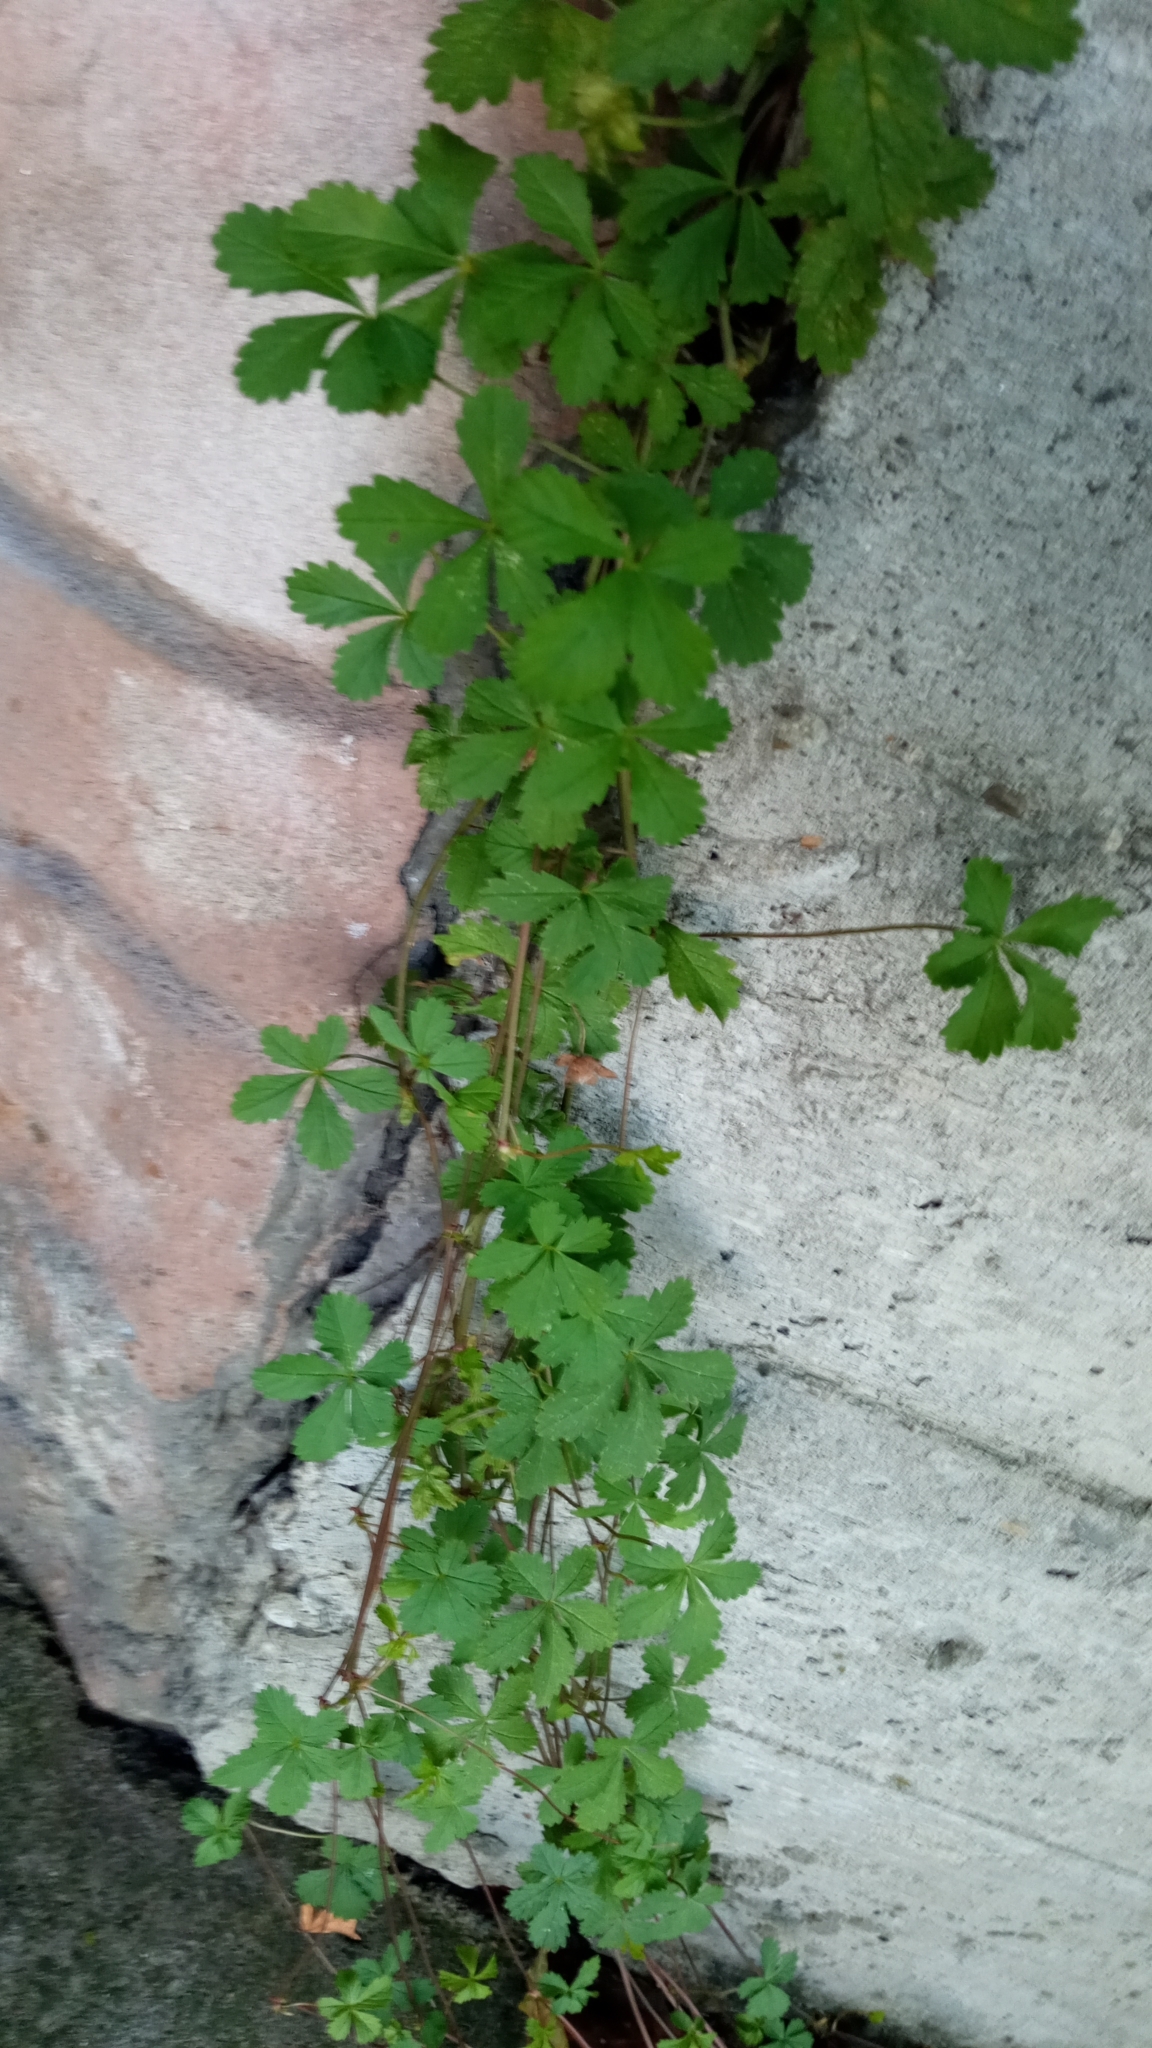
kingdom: Plantae
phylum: Tracheophyta
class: Magnoliopsida
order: Rosales
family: Rosaceae
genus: Potentilla
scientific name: Potentilla reptans
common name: Creeping cinquefoil
